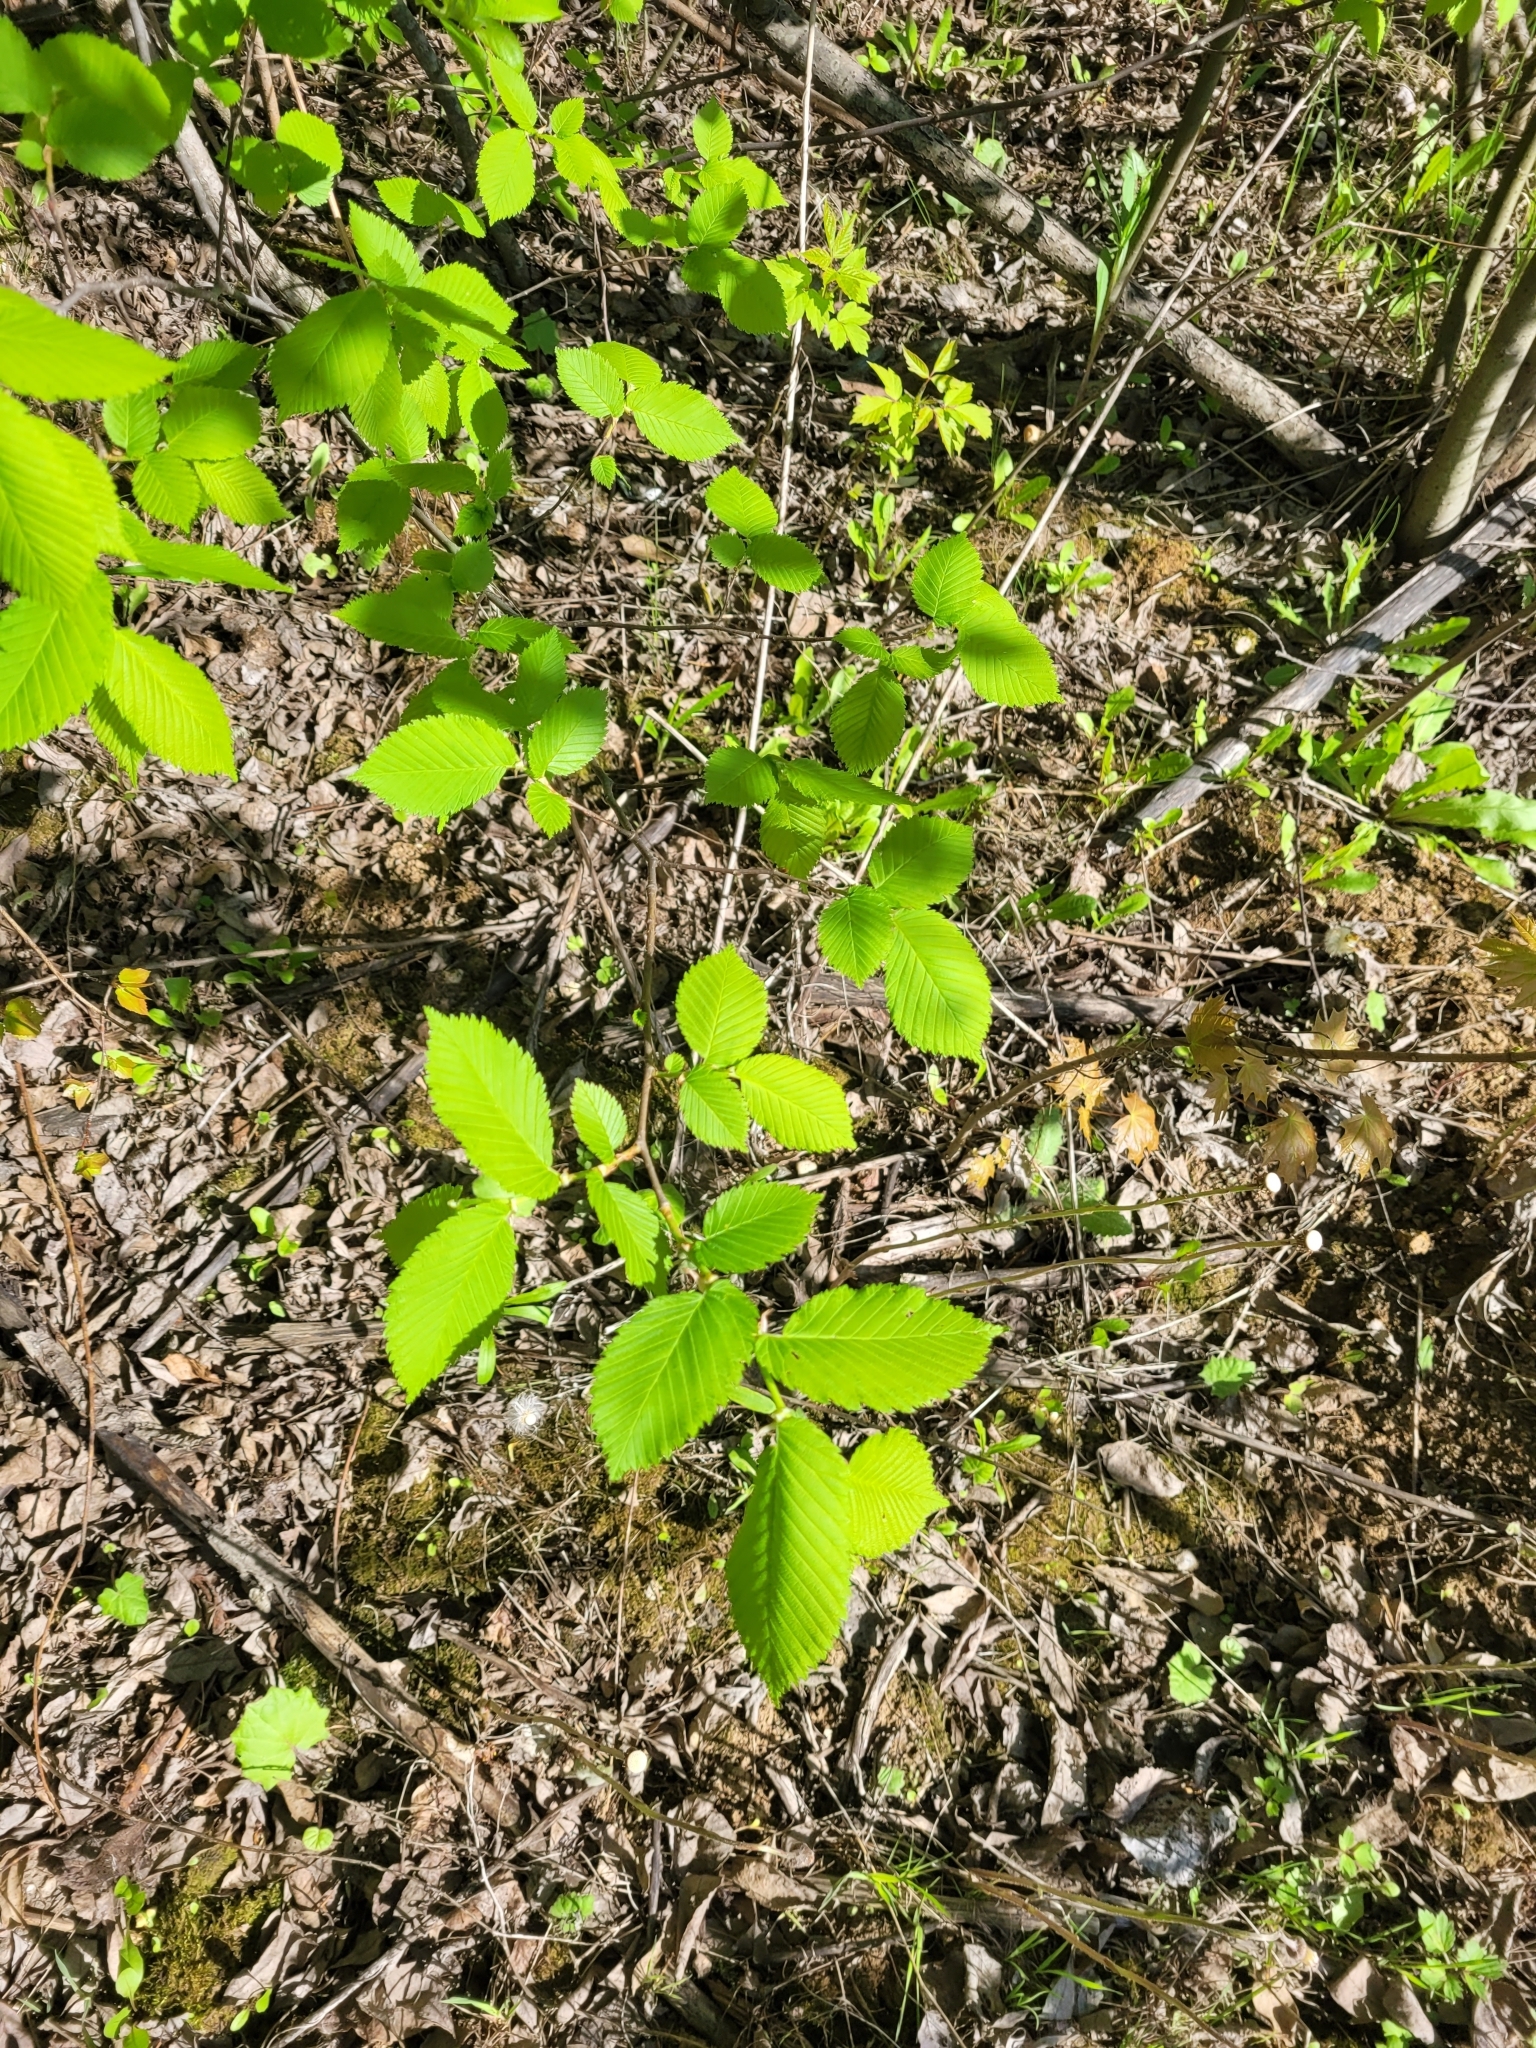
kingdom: Plantae
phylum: Tracheophyta
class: Magnoliopsida
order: Rosales
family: Ulmaceae
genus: Ulmus
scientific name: Ulmus laevis
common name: European white-elm
